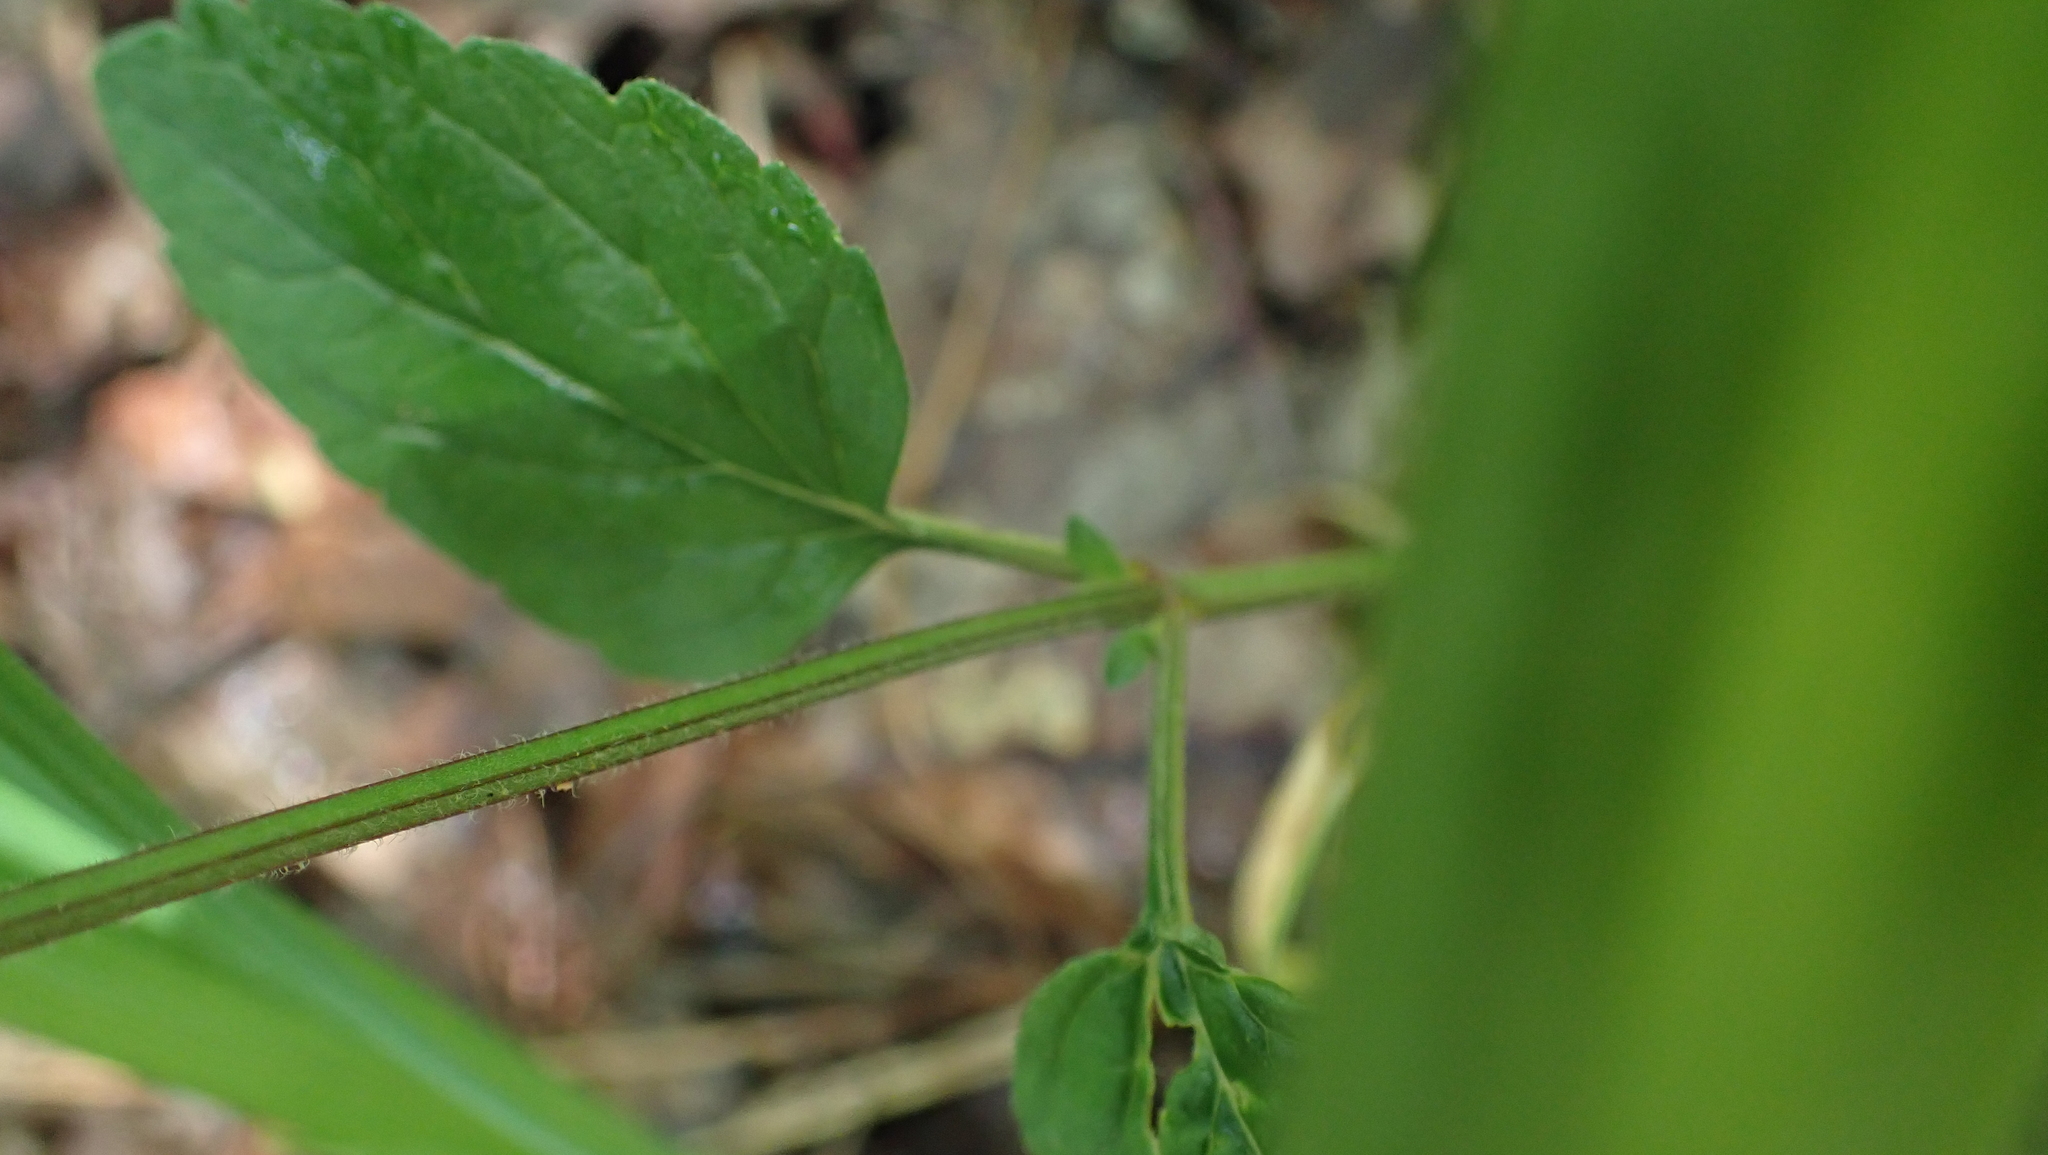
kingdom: Plantae
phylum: Tracheophyta
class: Magnoliopsida
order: Lamiales
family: Lamiaceae
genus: Scutellaria
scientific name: Scutellaria elliptica
